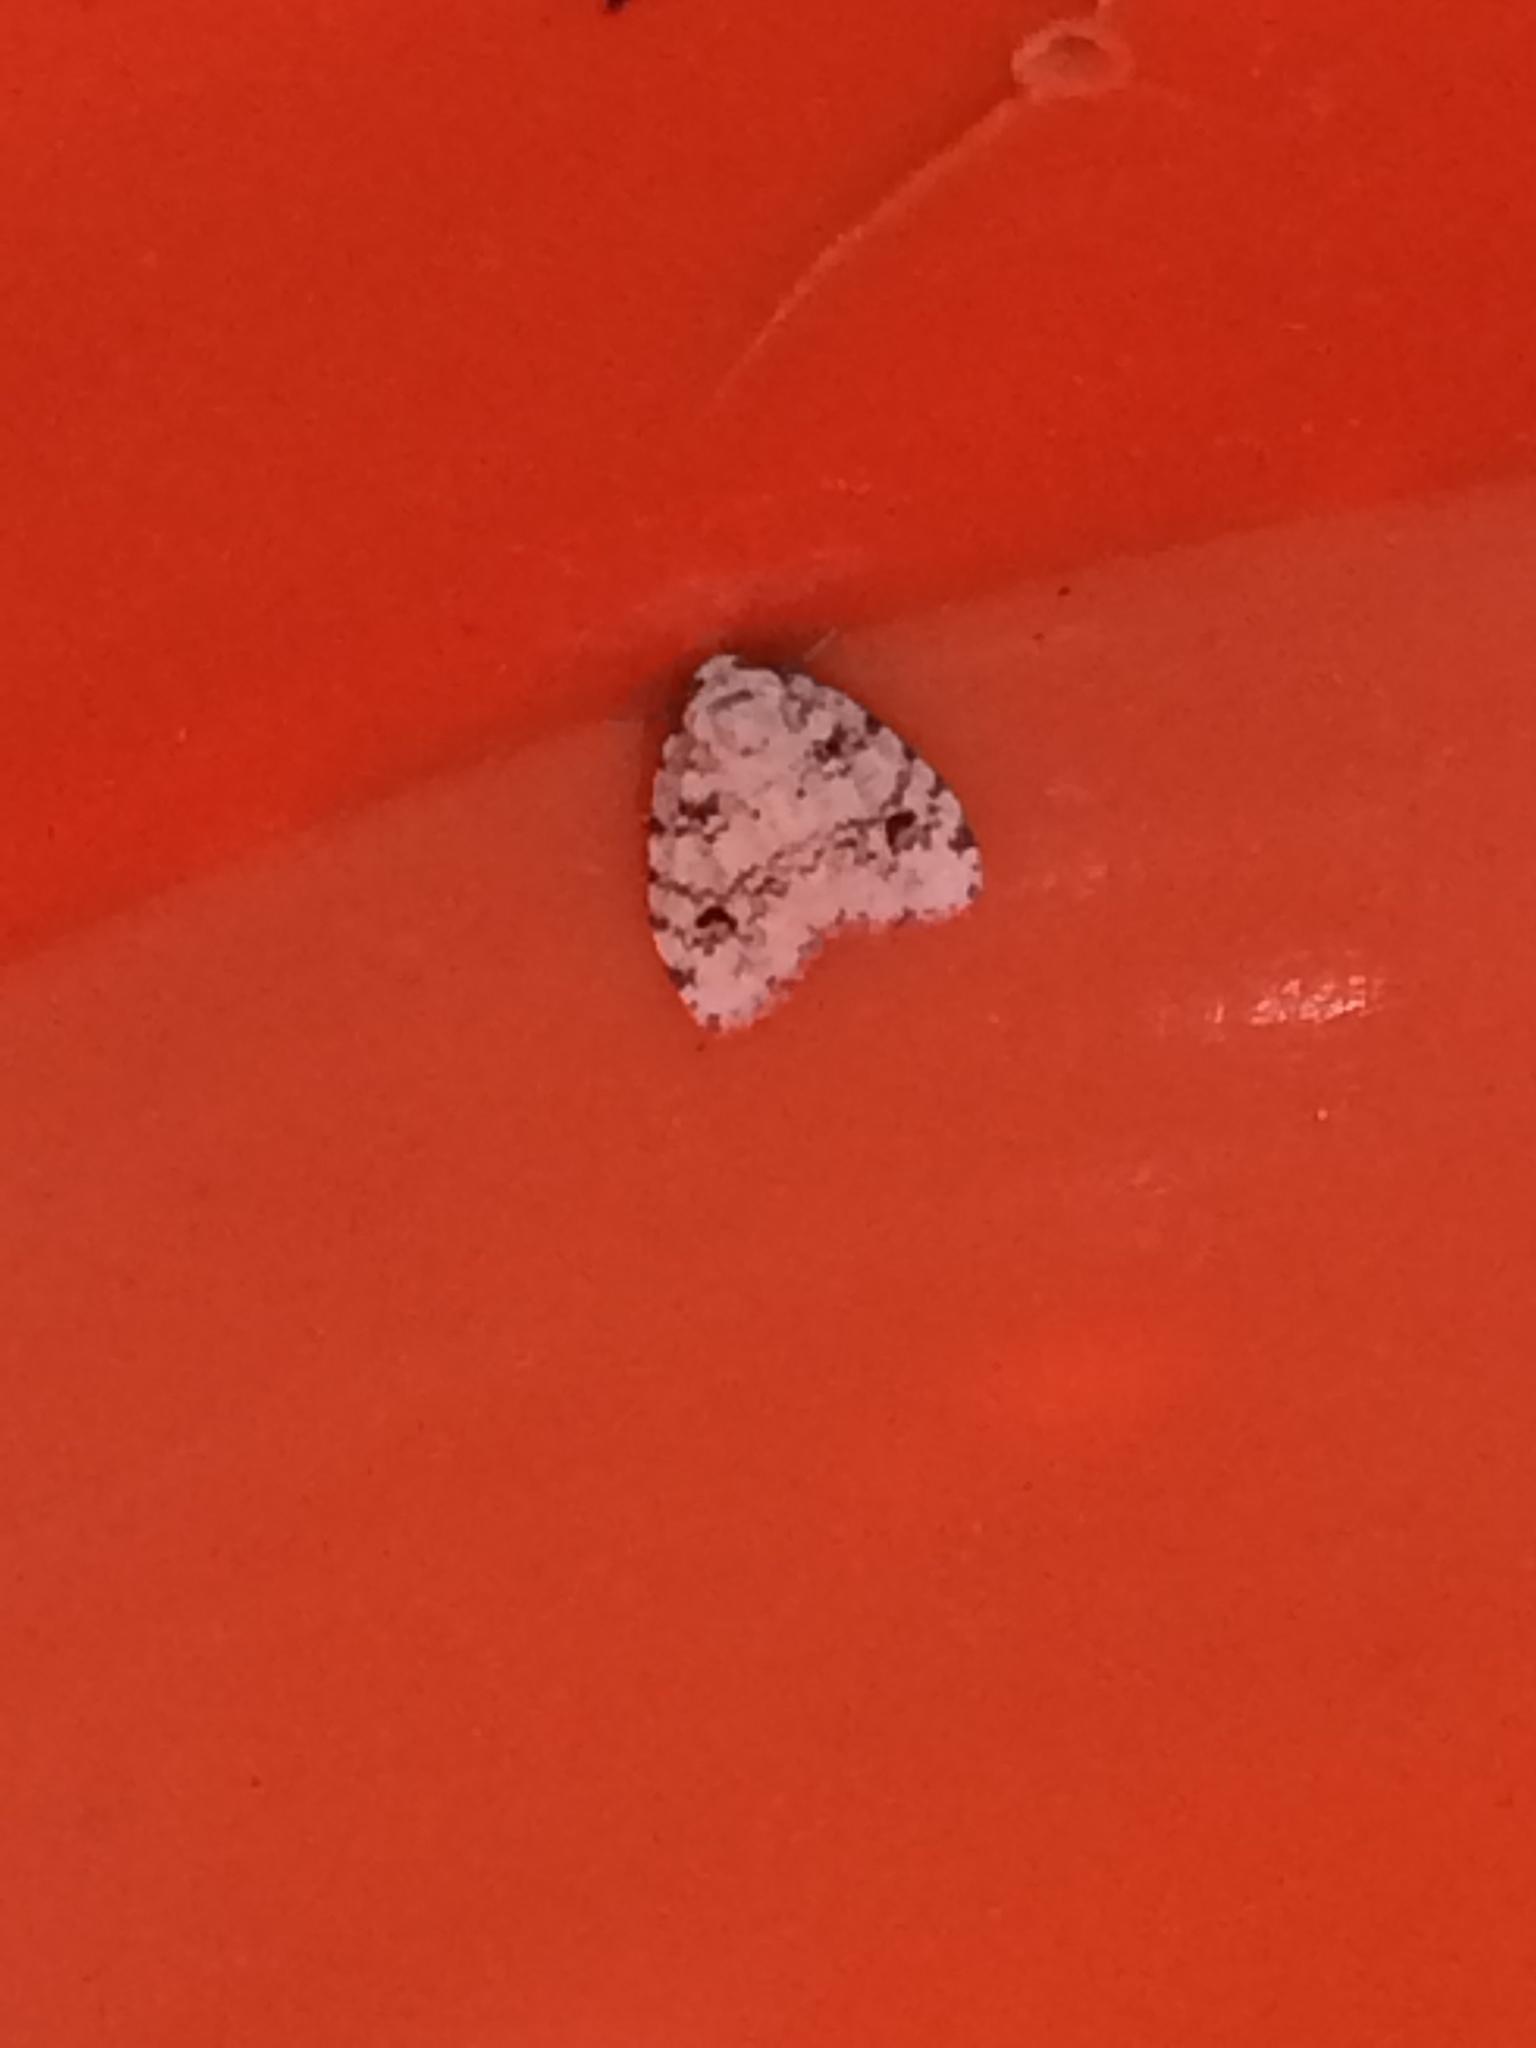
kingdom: Animalia
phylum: Arthropoda
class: Insecta
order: Lepidoptera
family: Erebidae
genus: Clemensia
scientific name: Clemensia ochreata
